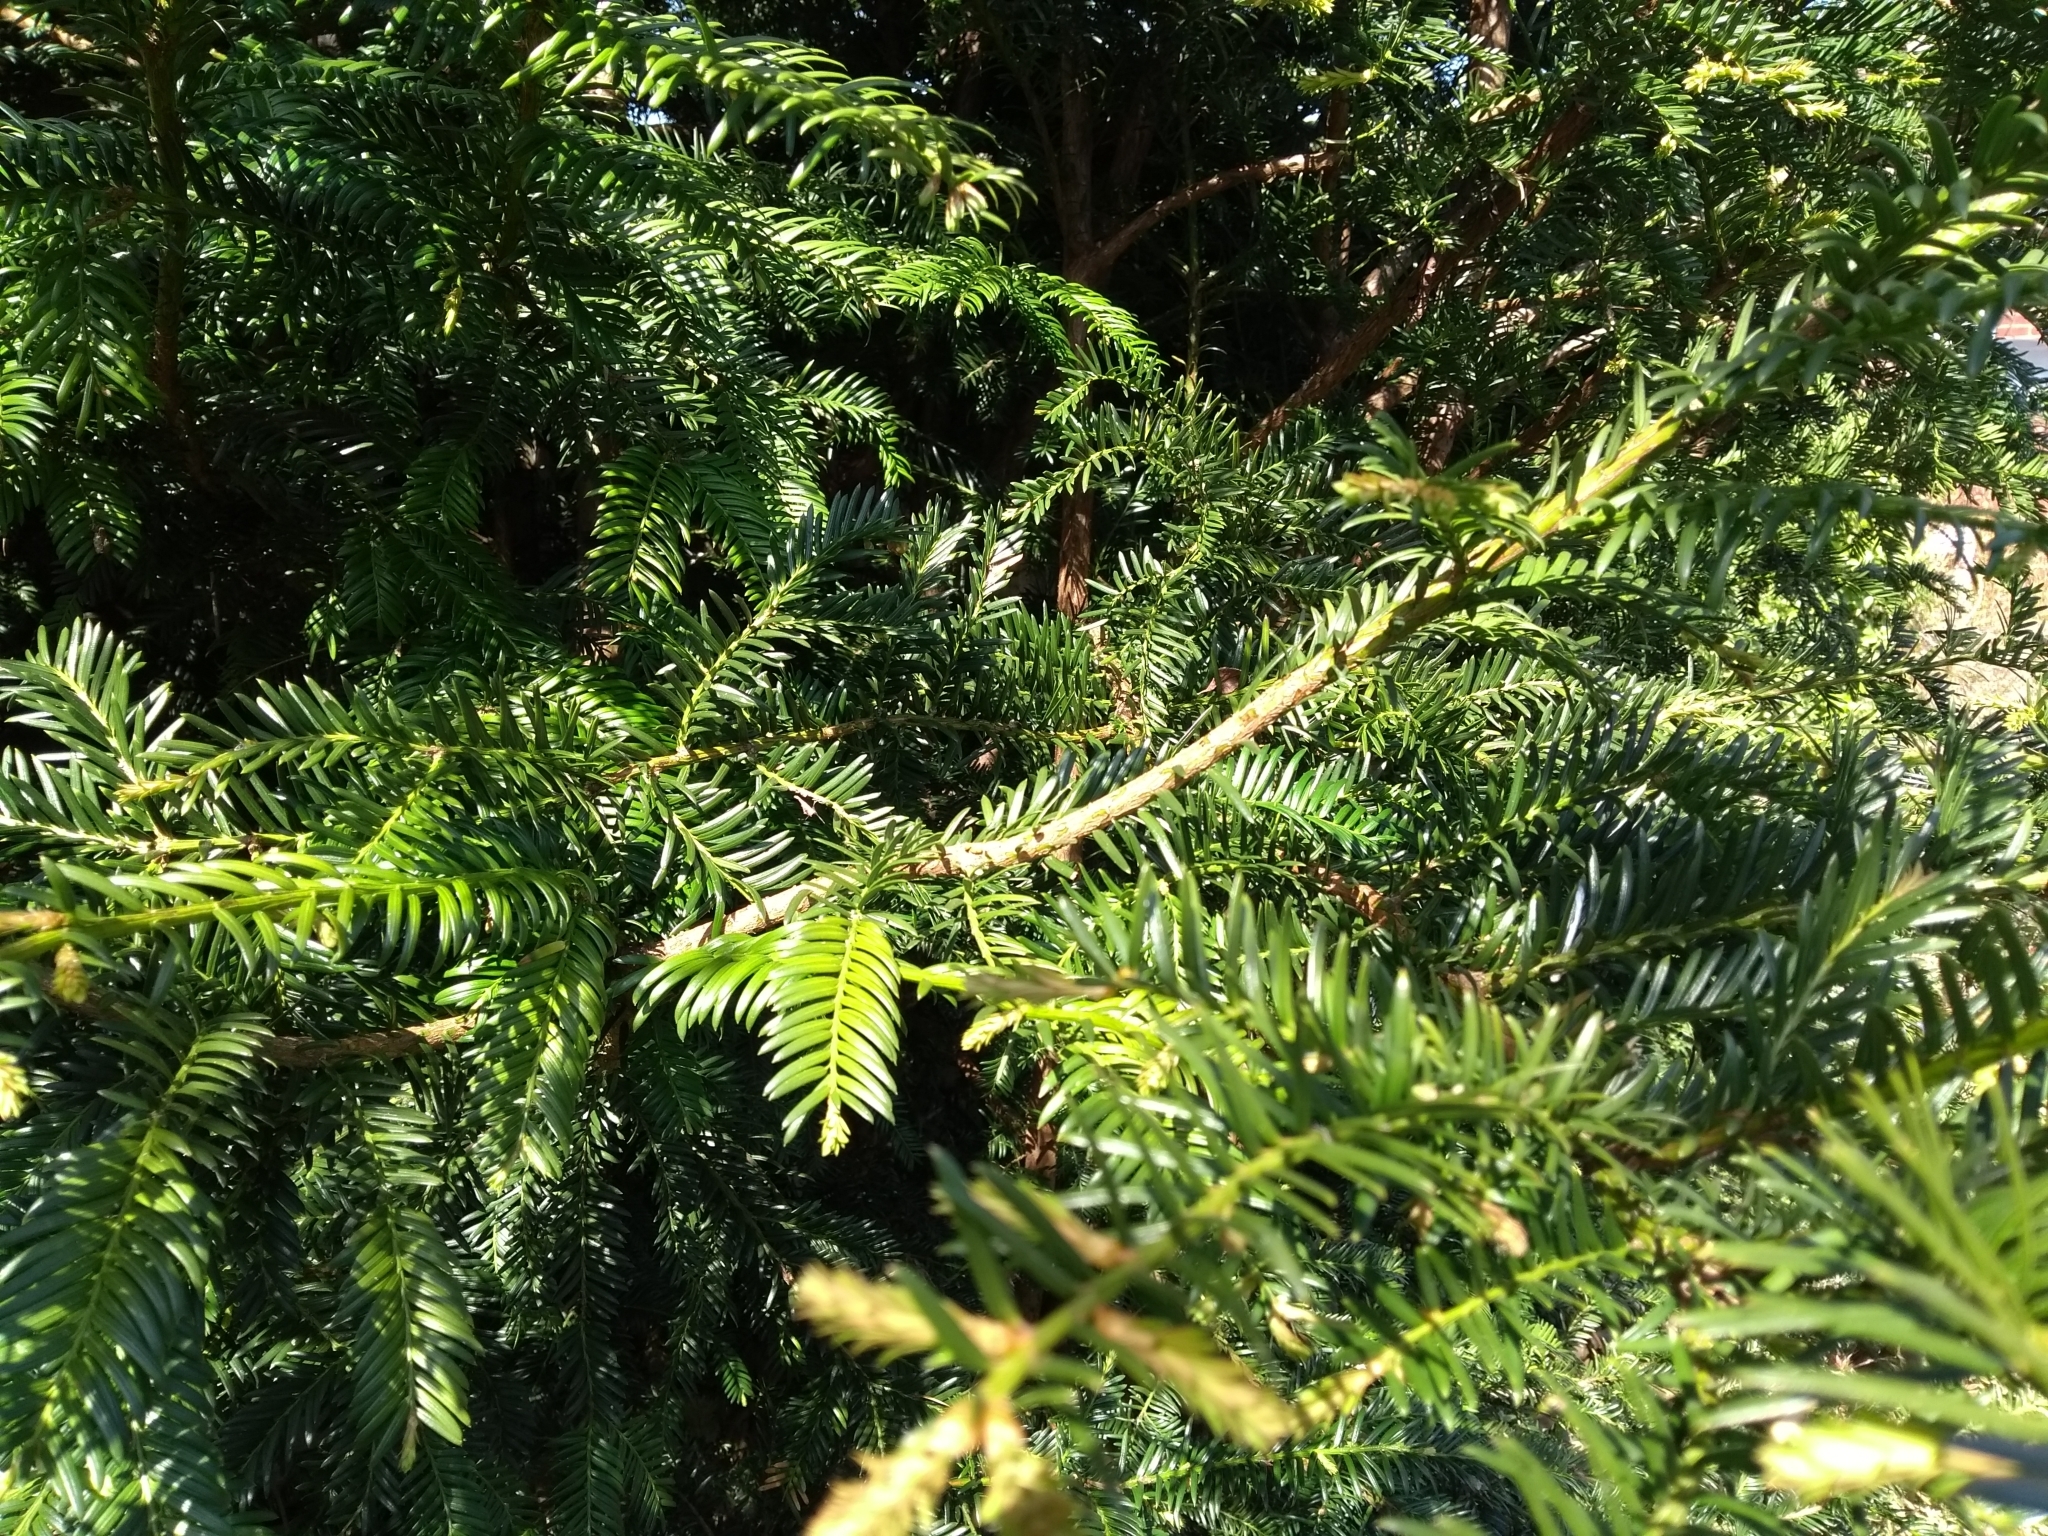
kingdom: Plantae
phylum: Tracheophyta
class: Pinopsida
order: Pinales
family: Taxaceae
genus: Taxus
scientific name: Taxus baccata
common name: Yew
